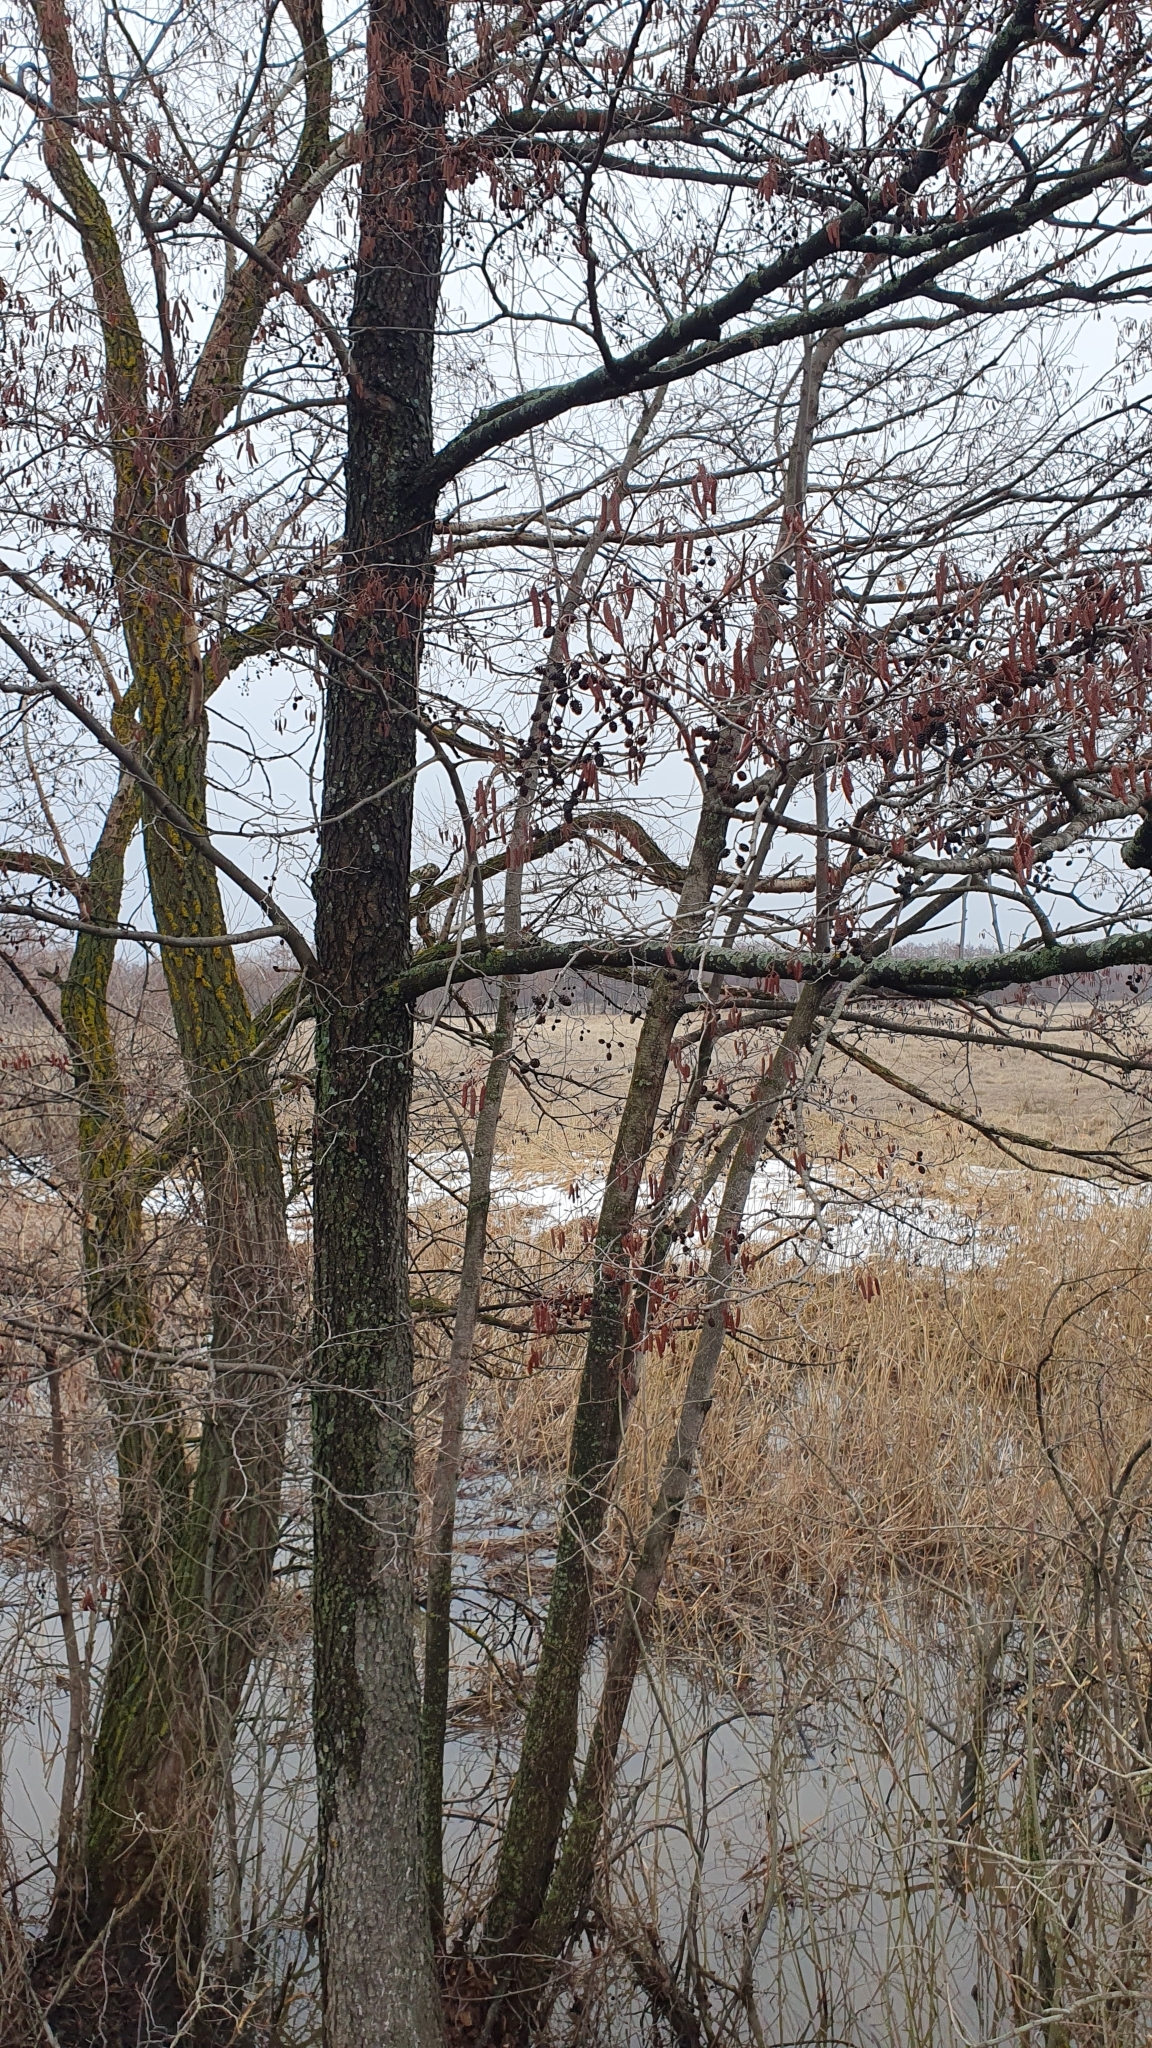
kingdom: Plantae
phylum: Tracheophyta
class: Magnoliopsida
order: Fagales
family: Betulaceae
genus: Alnus
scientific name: Alnus glutinosa
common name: Black alder
